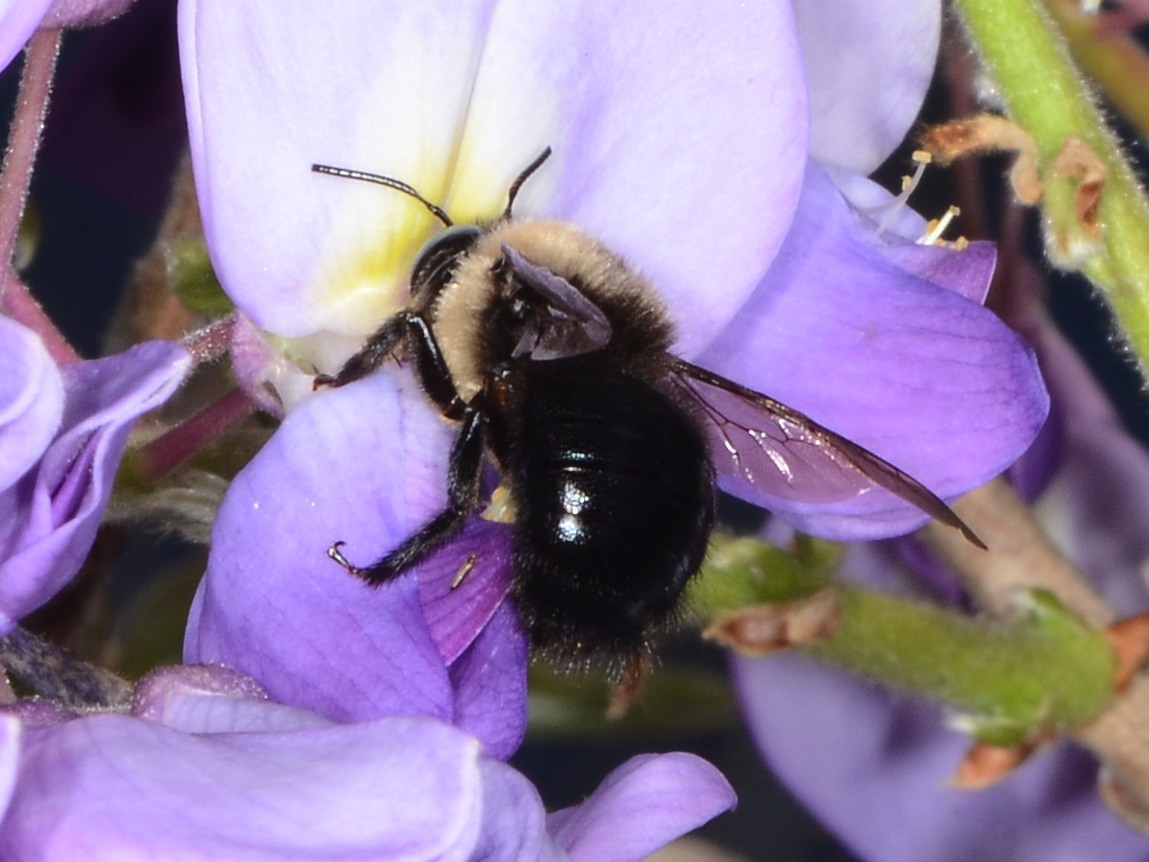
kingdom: Animalia
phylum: Arthropoda
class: Insecta
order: Hymenoptera
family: Apidae
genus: Xylocopa
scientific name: Xylocopa tabaniformis
